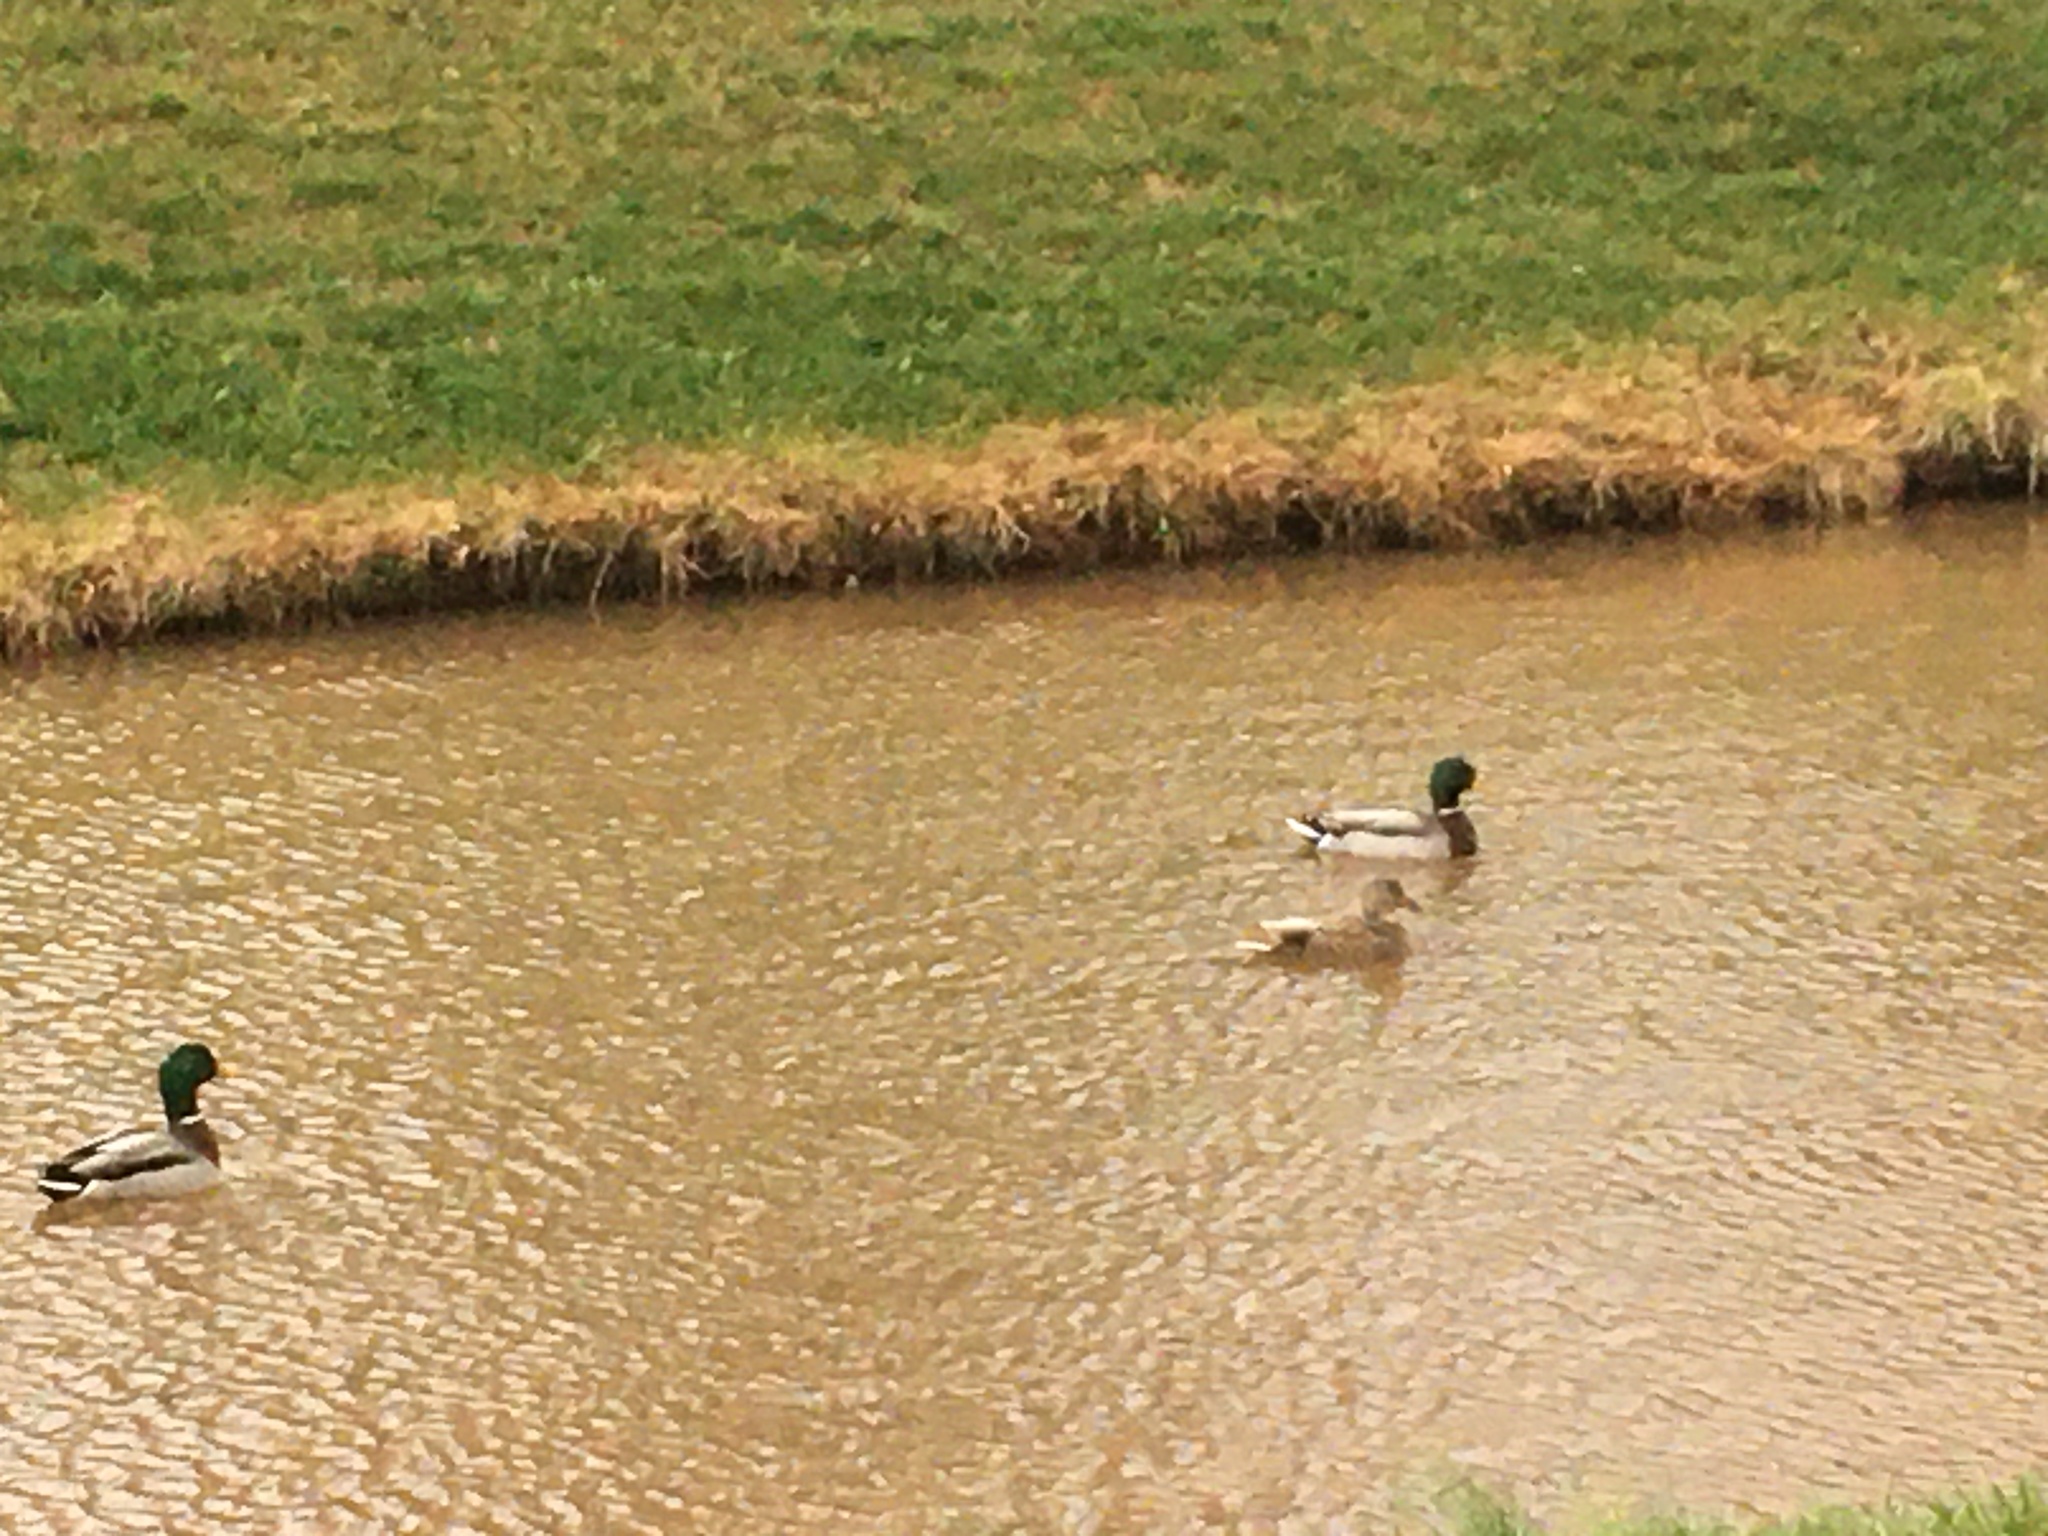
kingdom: Animalia
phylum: Chordata
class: Aves
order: Anseriformes
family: Anatidae
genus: Anas
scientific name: Anas platyrhynchos
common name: Mallard
